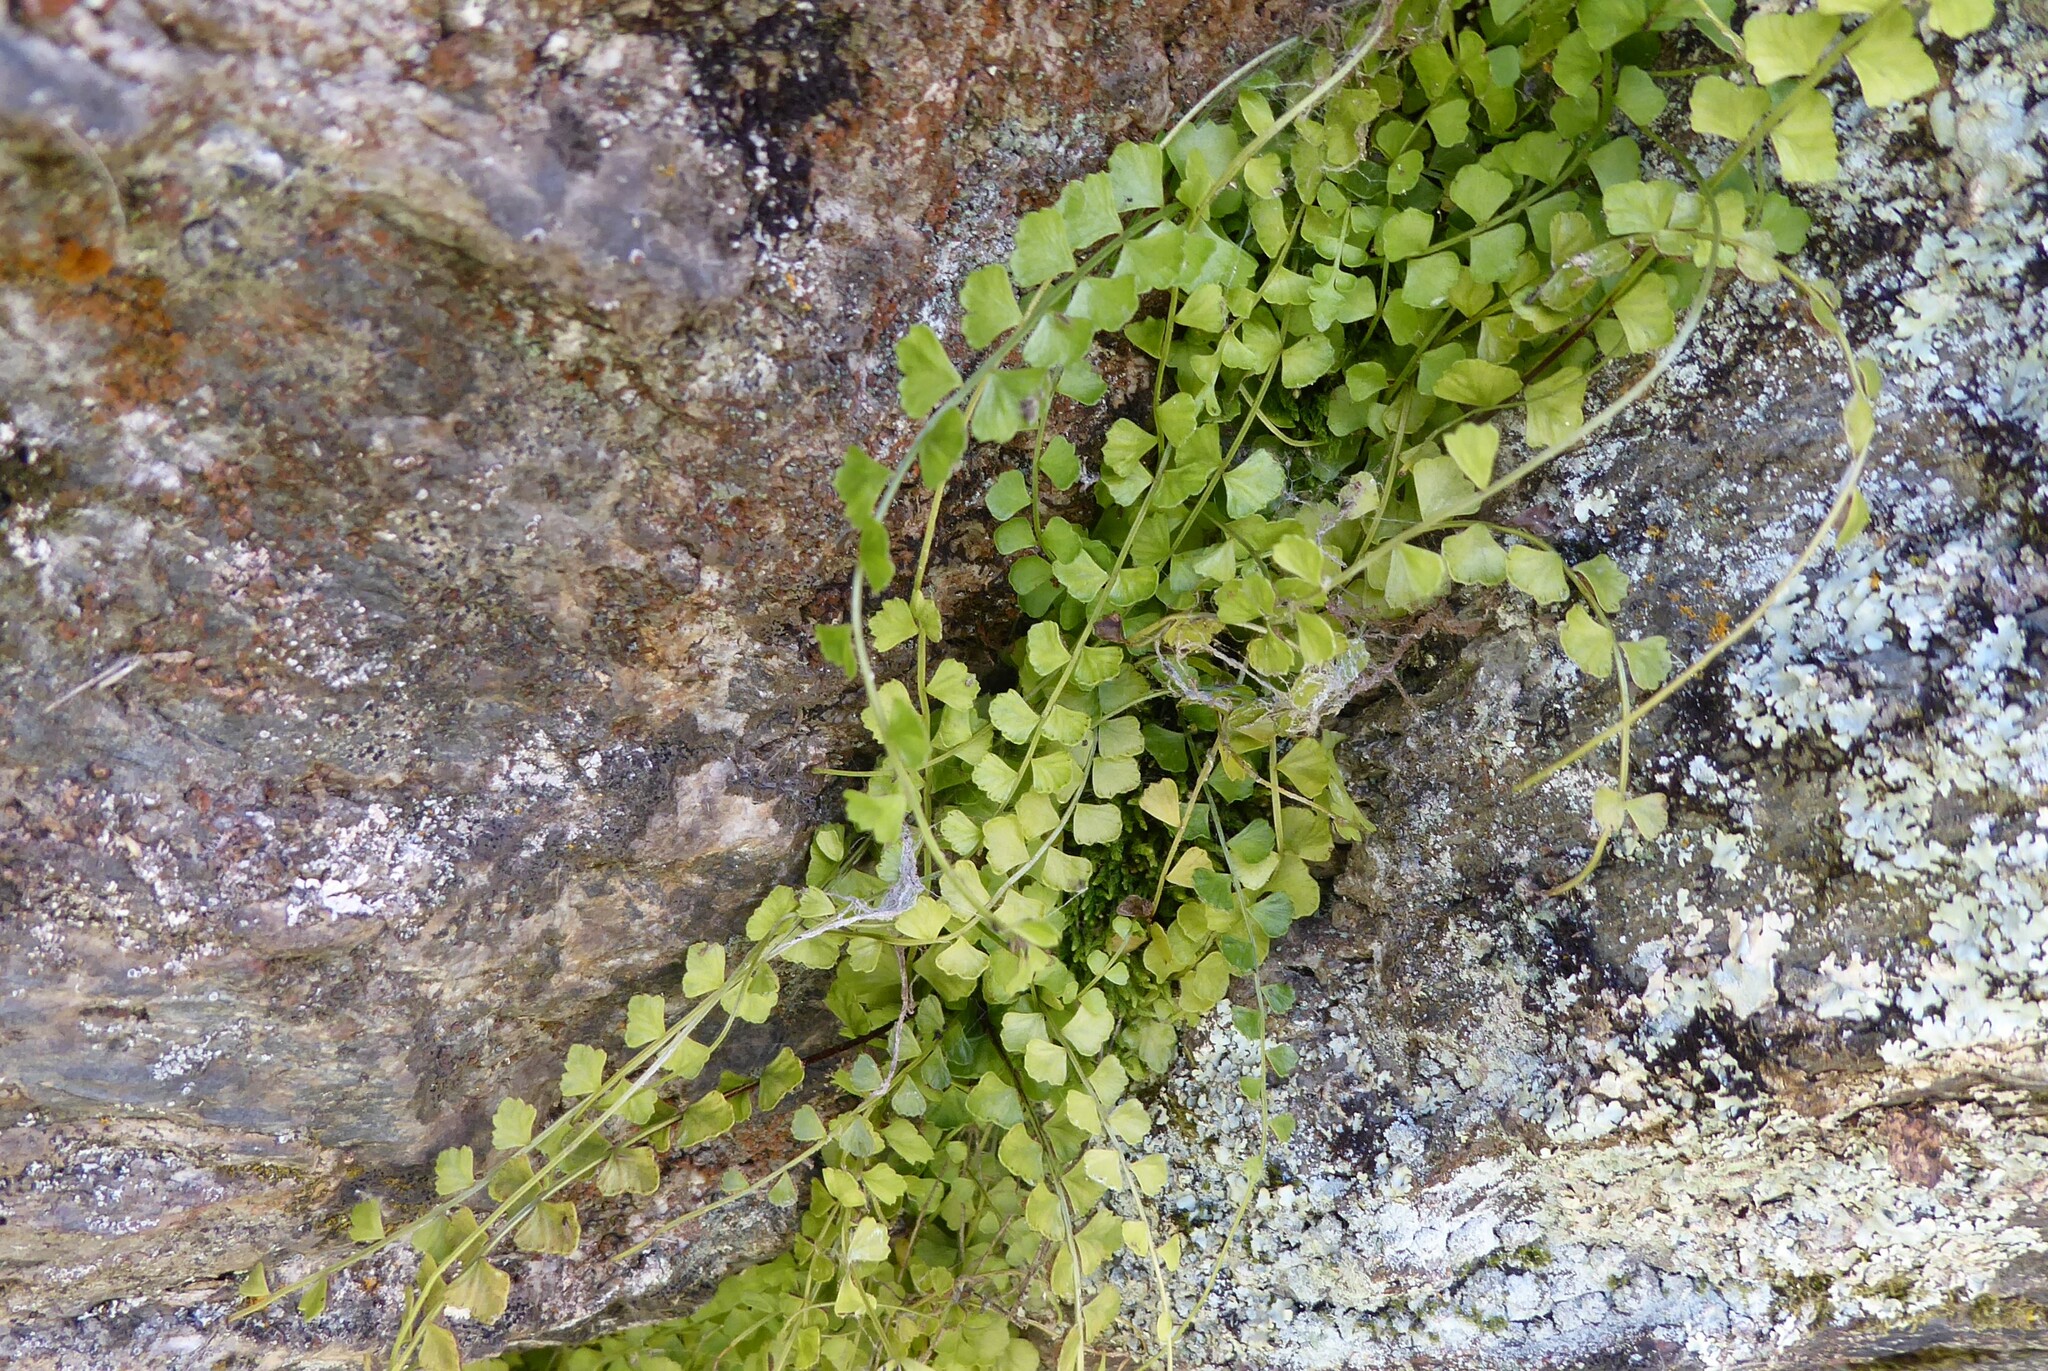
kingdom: Plantae
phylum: Tracheophyta
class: Polypodiopsida
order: Polypodiales
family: Aspleniaceae
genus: Asplenium
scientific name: Asplenium flabellifolium
